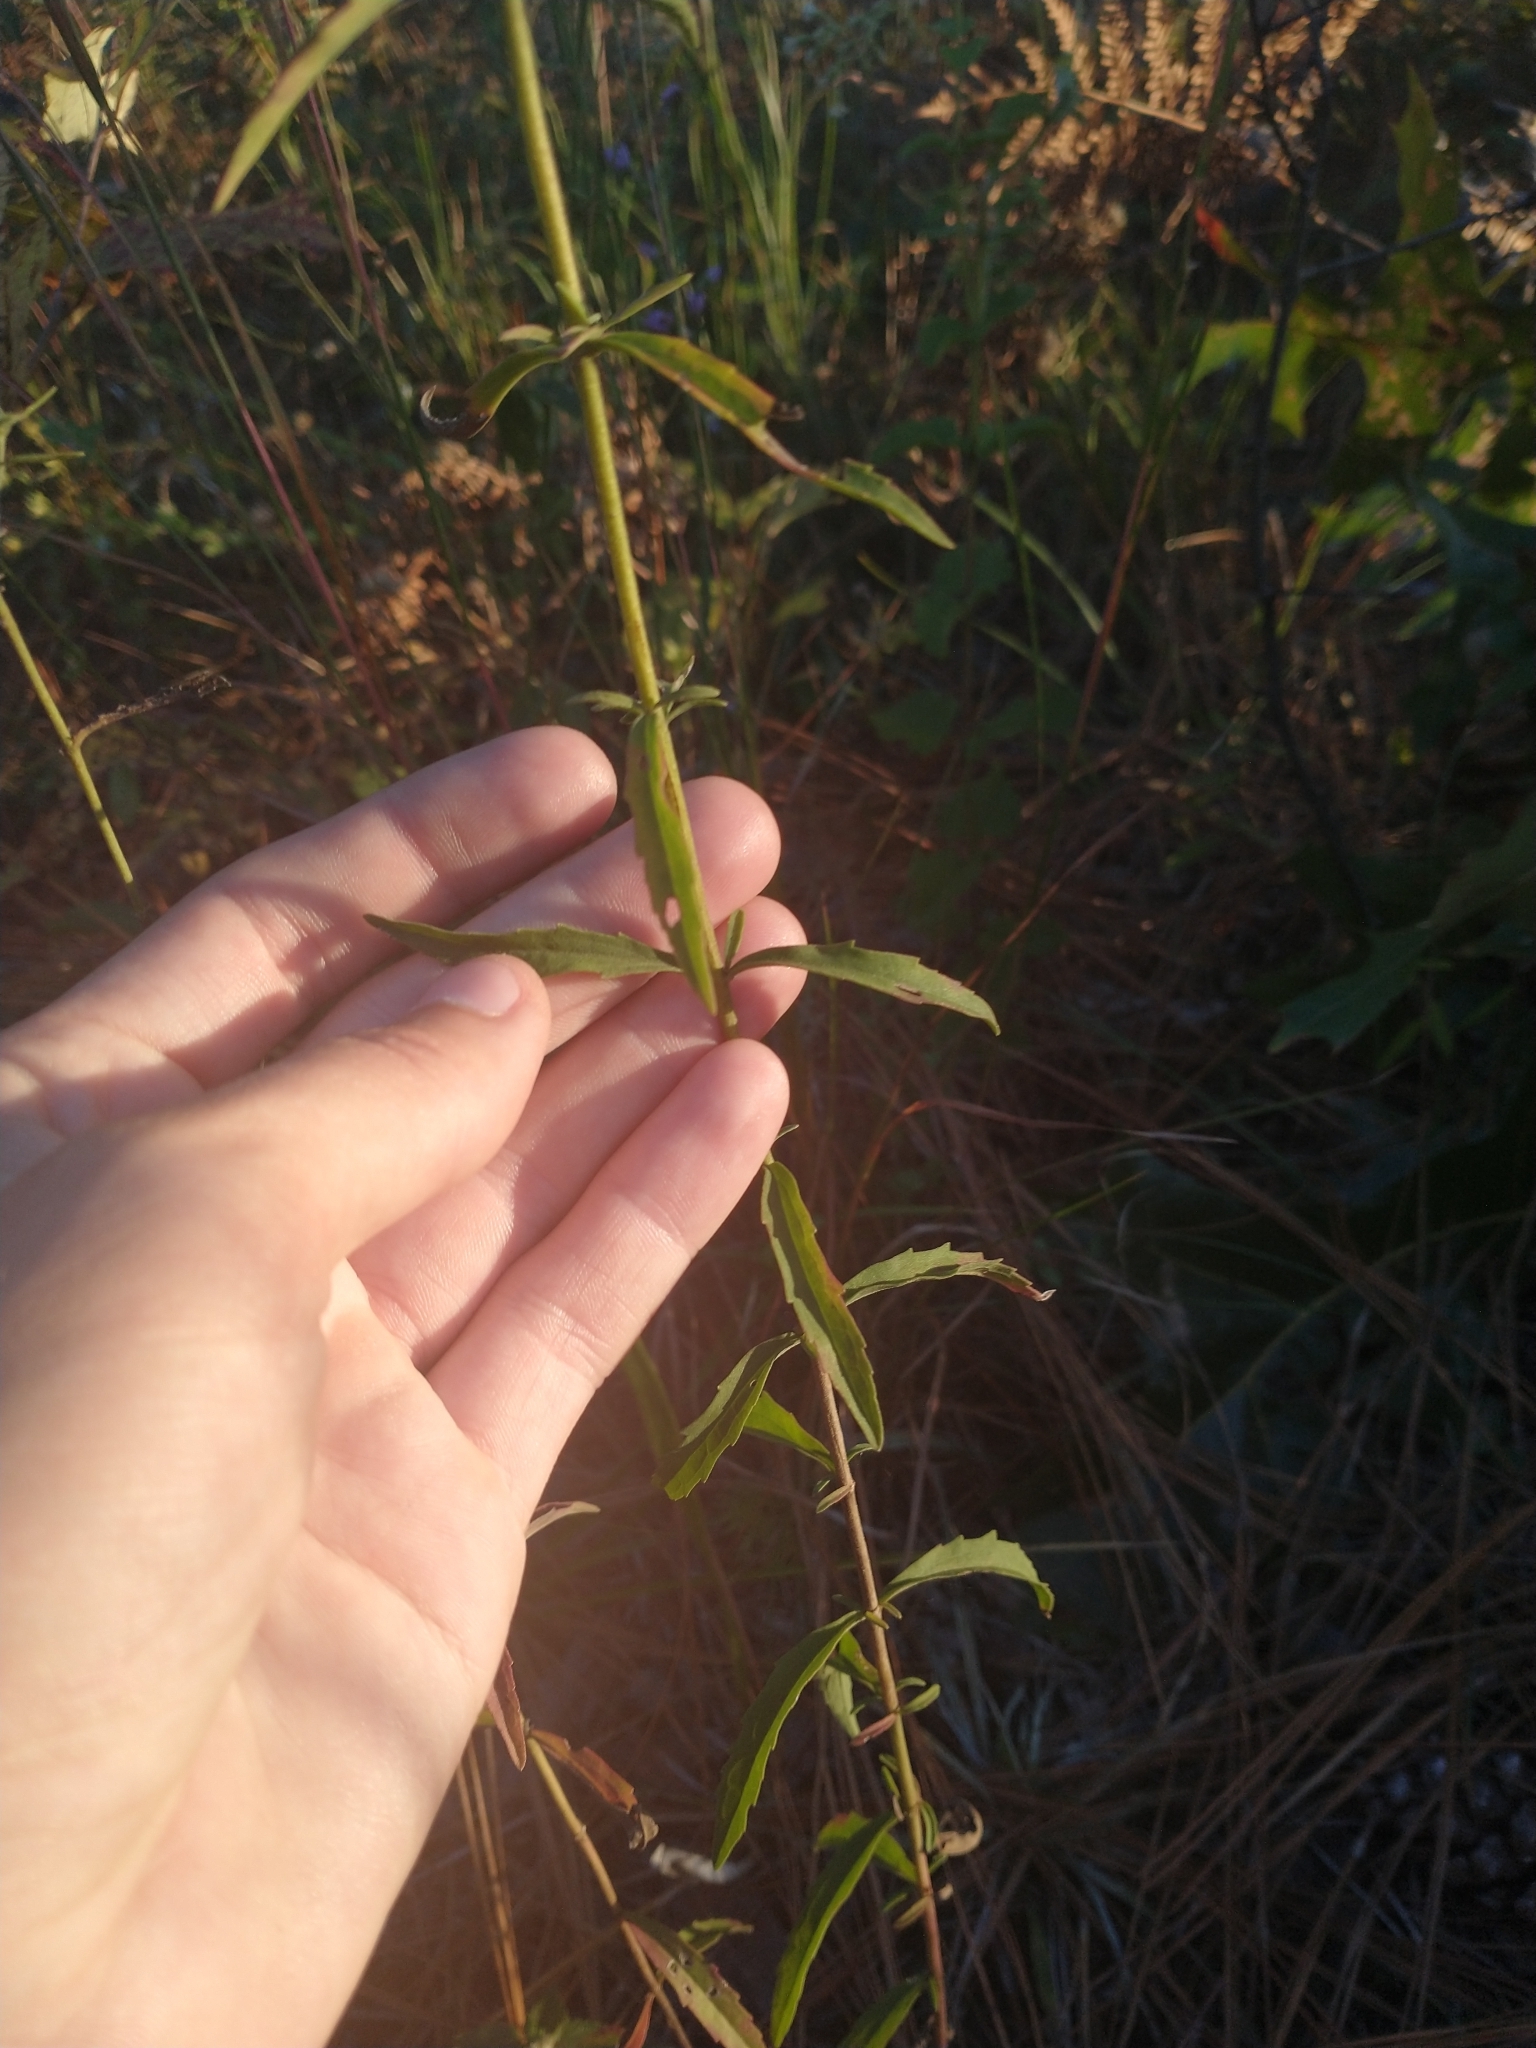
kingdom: Plantae
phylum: Tracheophyta
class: Magnoliopsida
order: Asterales
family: Asteraceae
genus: Eupatorium
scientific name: Eupatorium mohrii
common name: Mohr's thoroughwort
